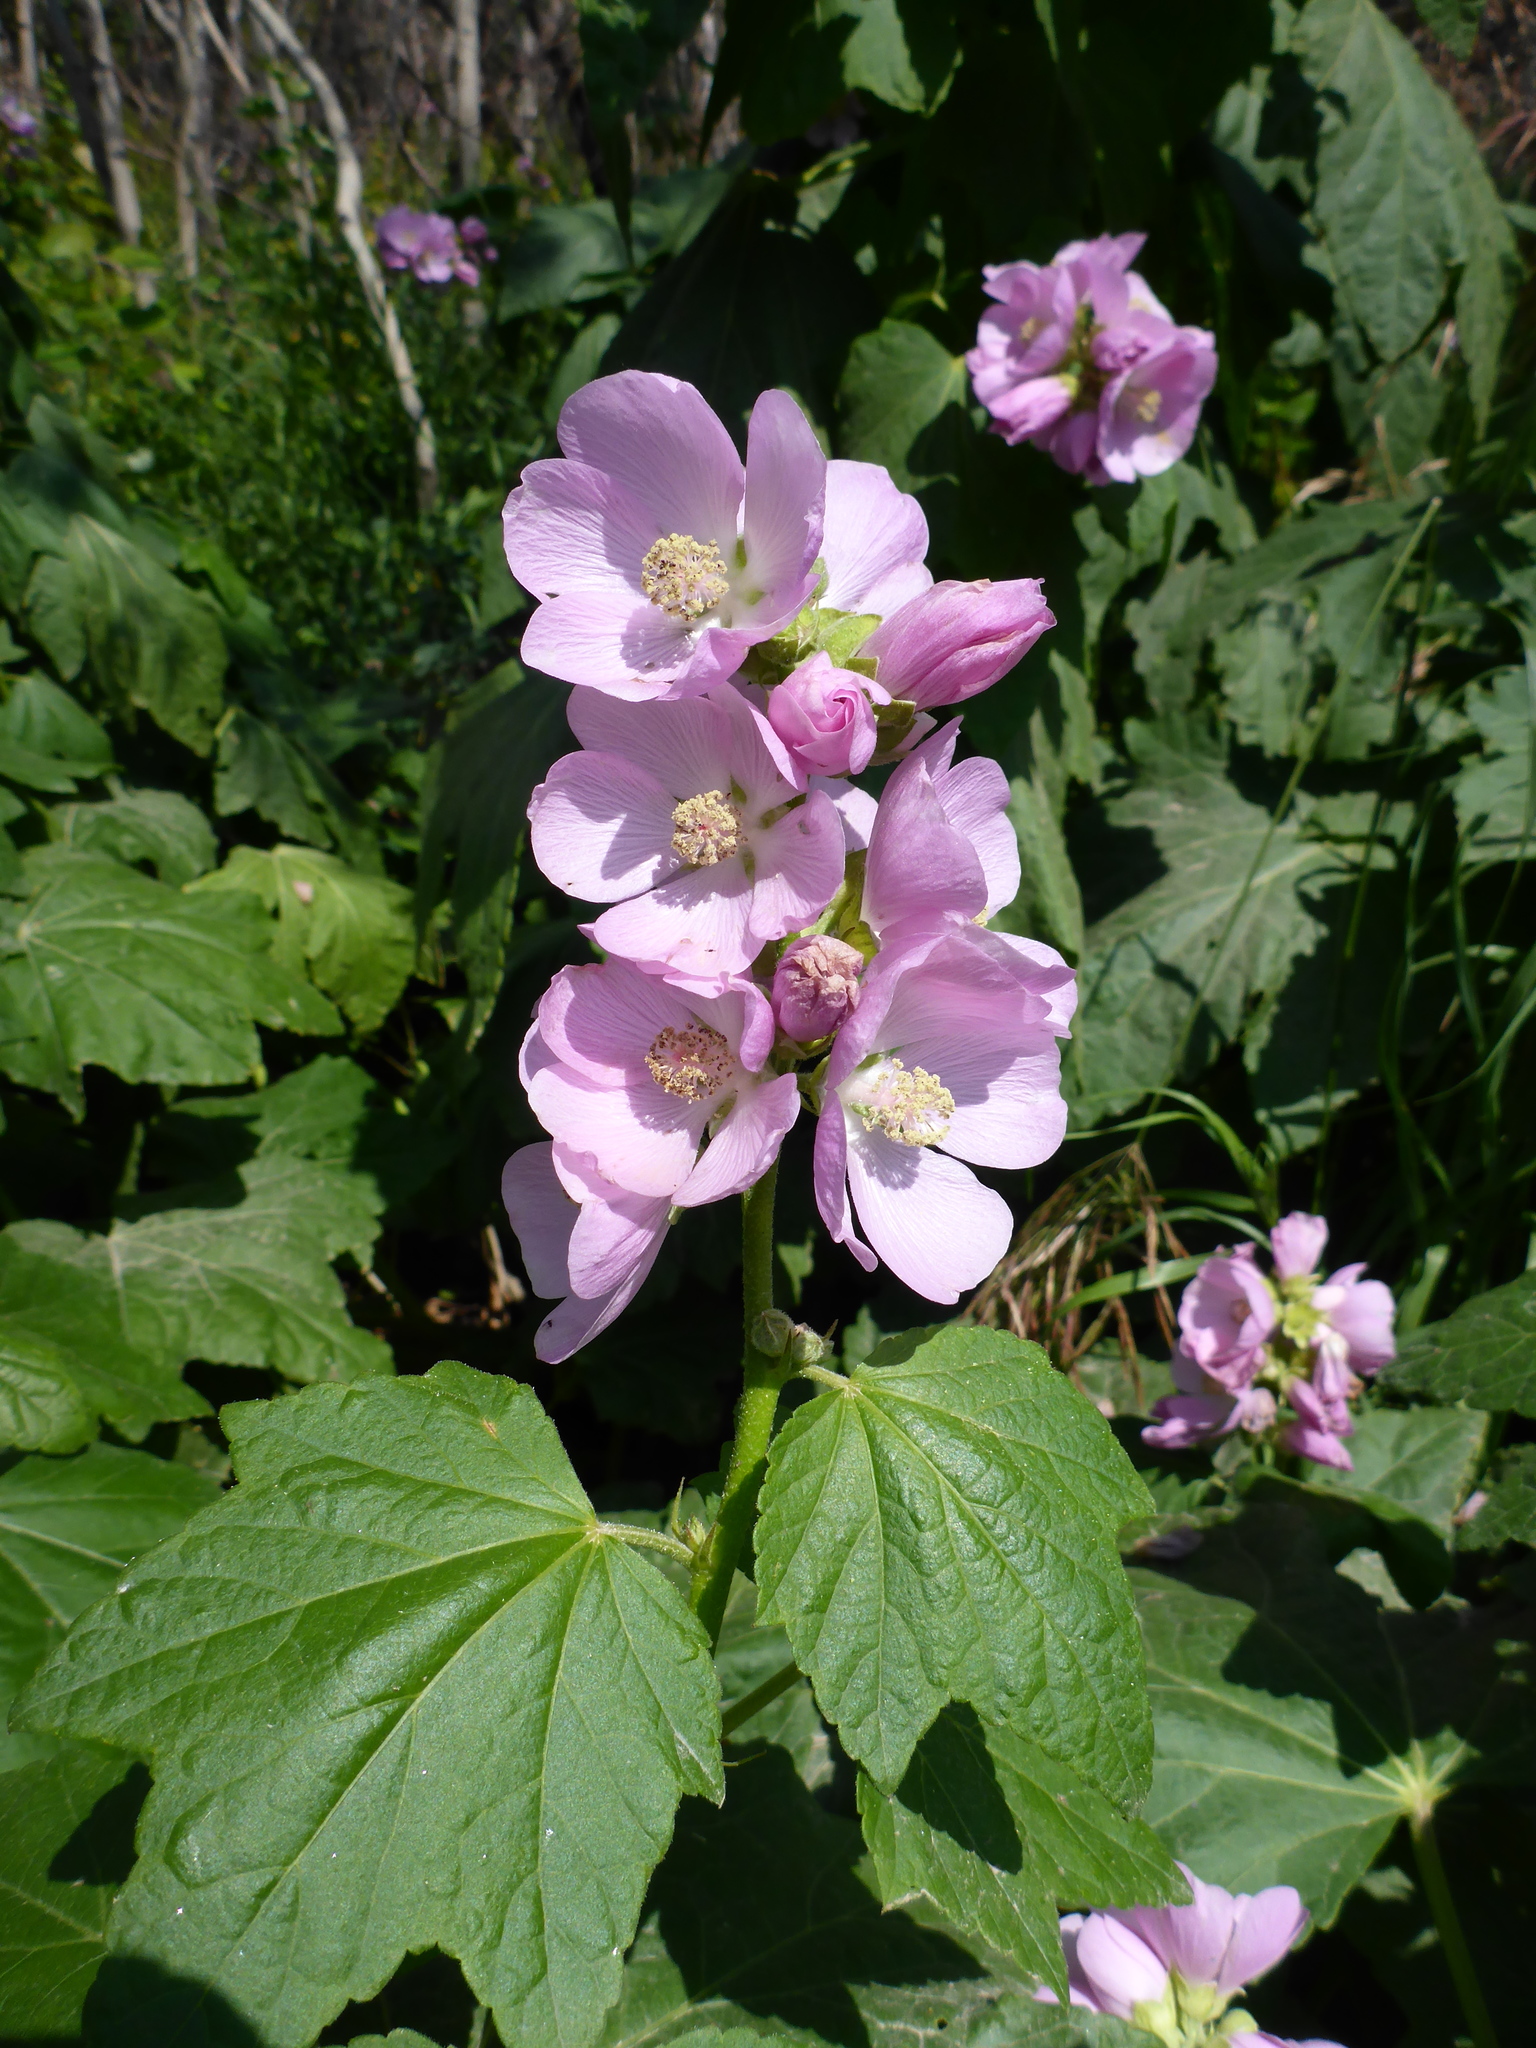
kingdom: Plantae
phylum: Tracheophyta
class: Magnoliopsida
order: Malvales
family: Malvaceae
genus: Iliamna
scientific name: Iliamna rivularis
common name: Wild hollyhock
